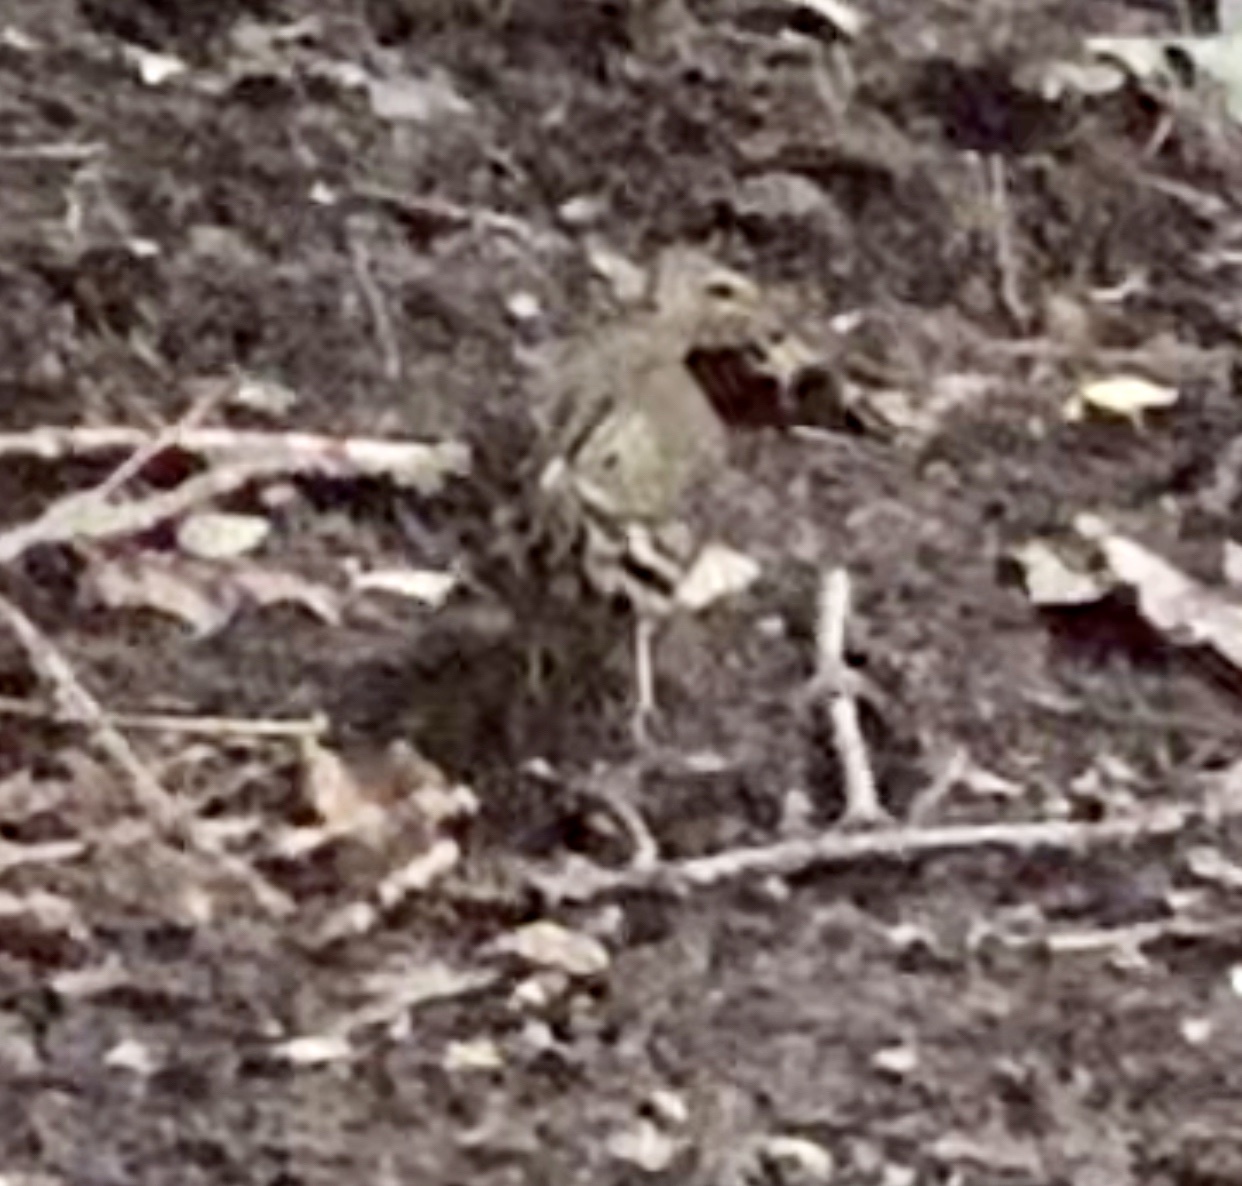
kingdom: Animalia
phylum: Chordata
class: Aves
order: Passeriformes
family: Parulidae
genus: Seiurus
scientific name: Seiurus aurocapilla
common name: Ovenbird
